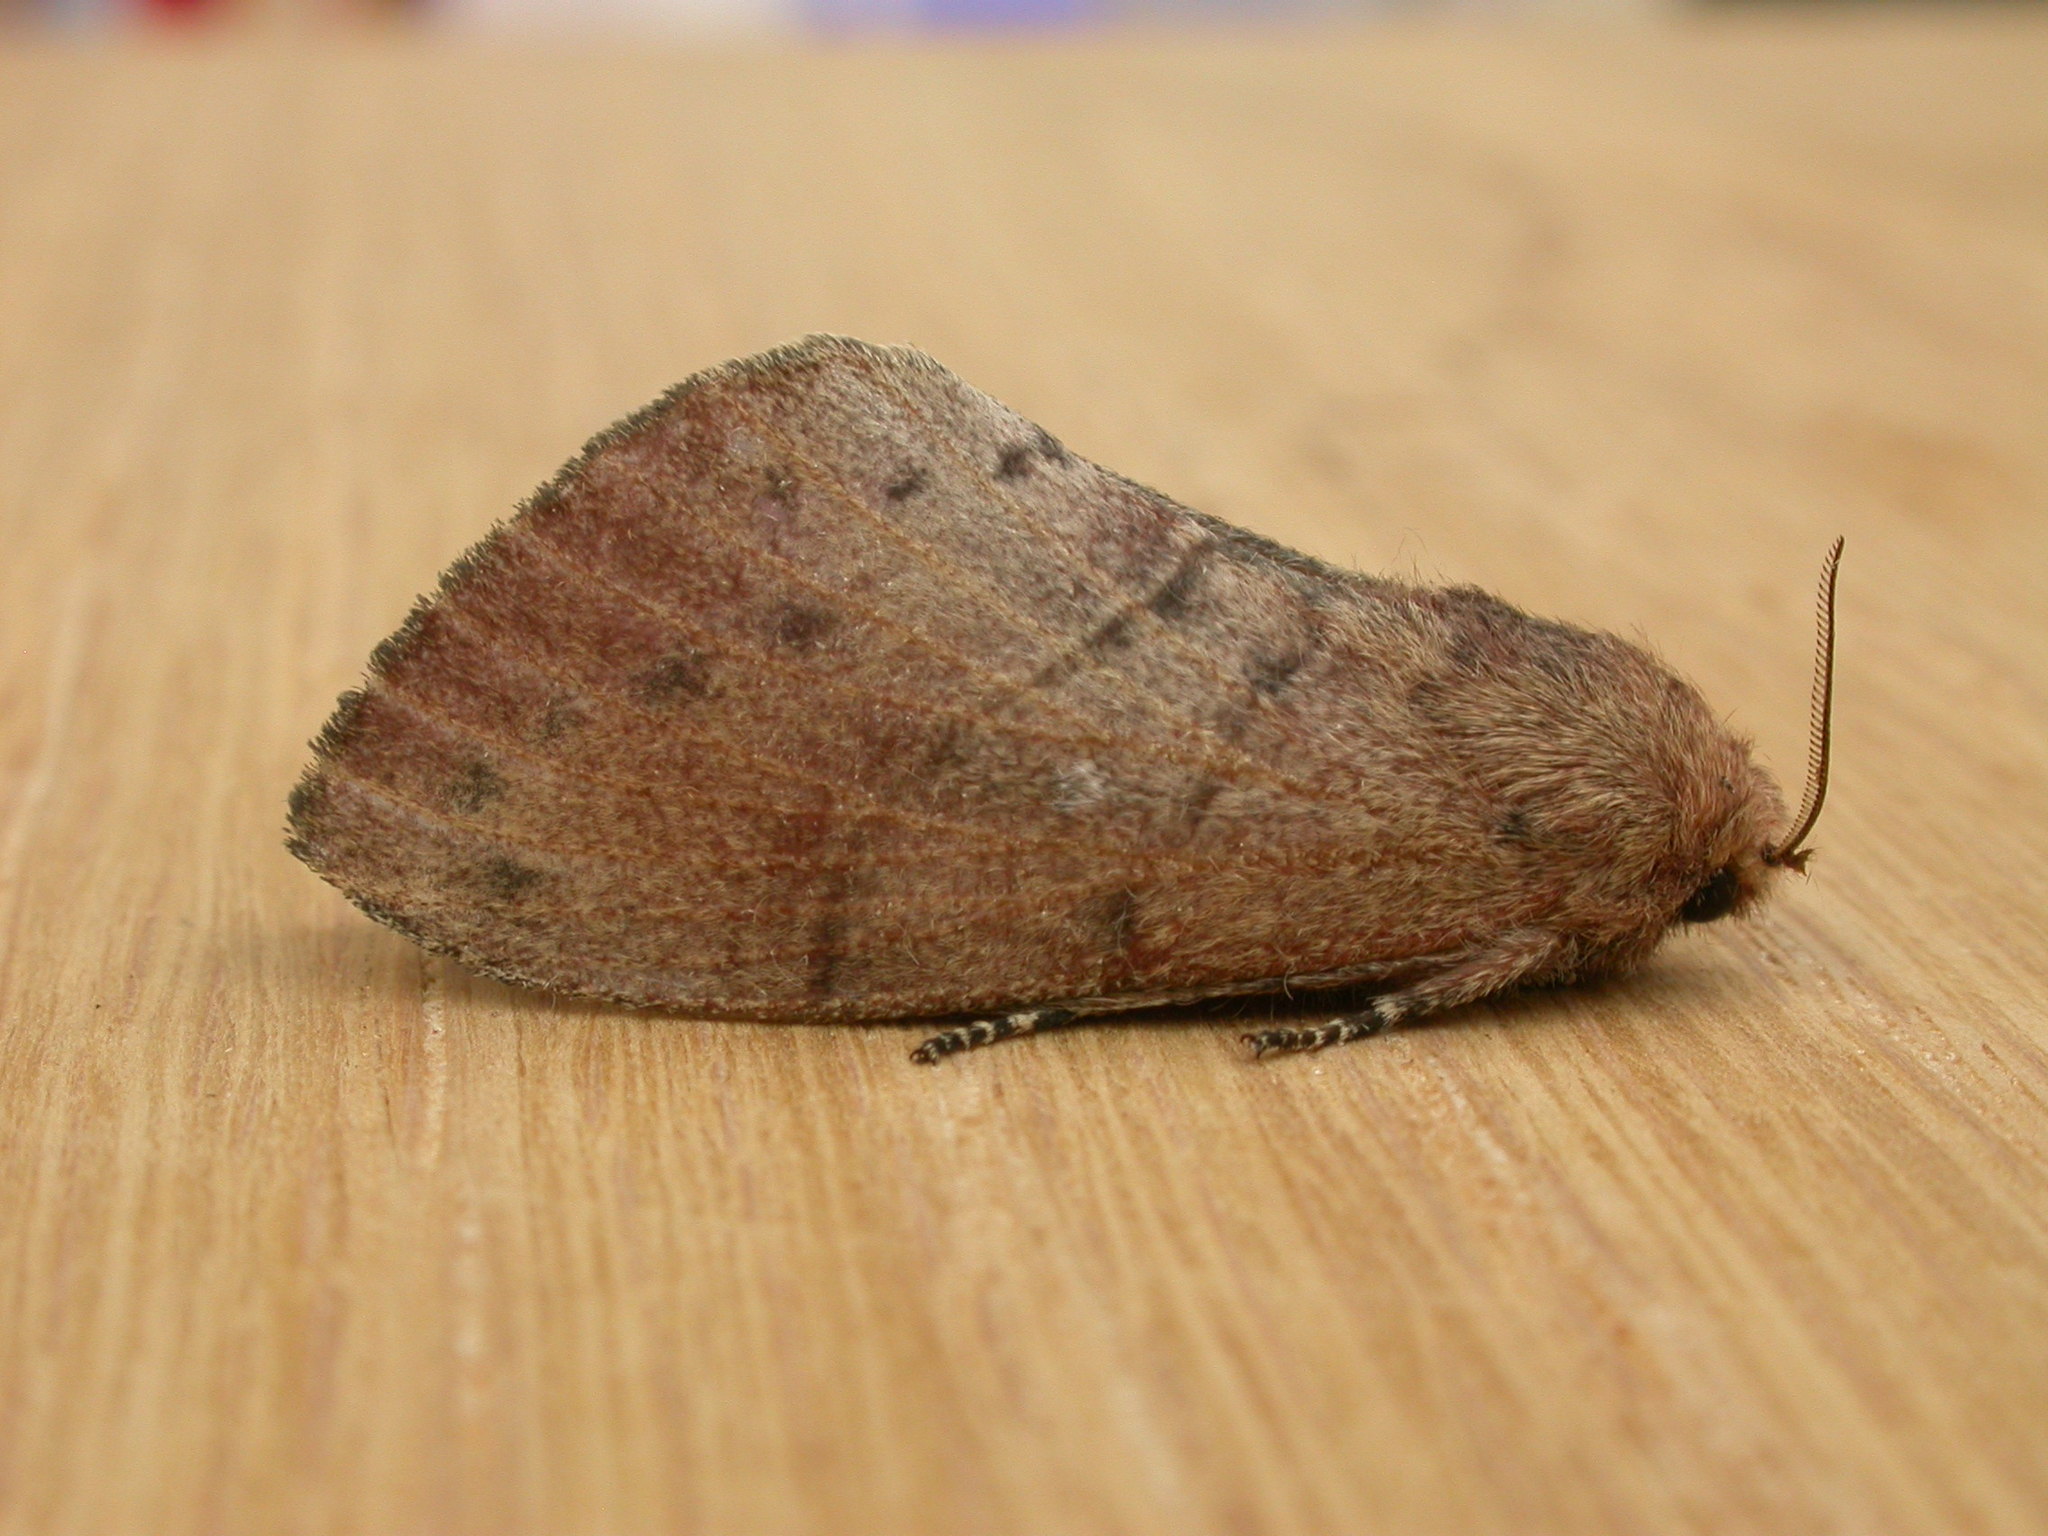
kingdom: Animalia
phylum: Arthropoda
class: Insecta
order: Lepidoptera
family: Lasiocampidae
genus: Opsirhina
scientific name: Opsirhina lechriodes
